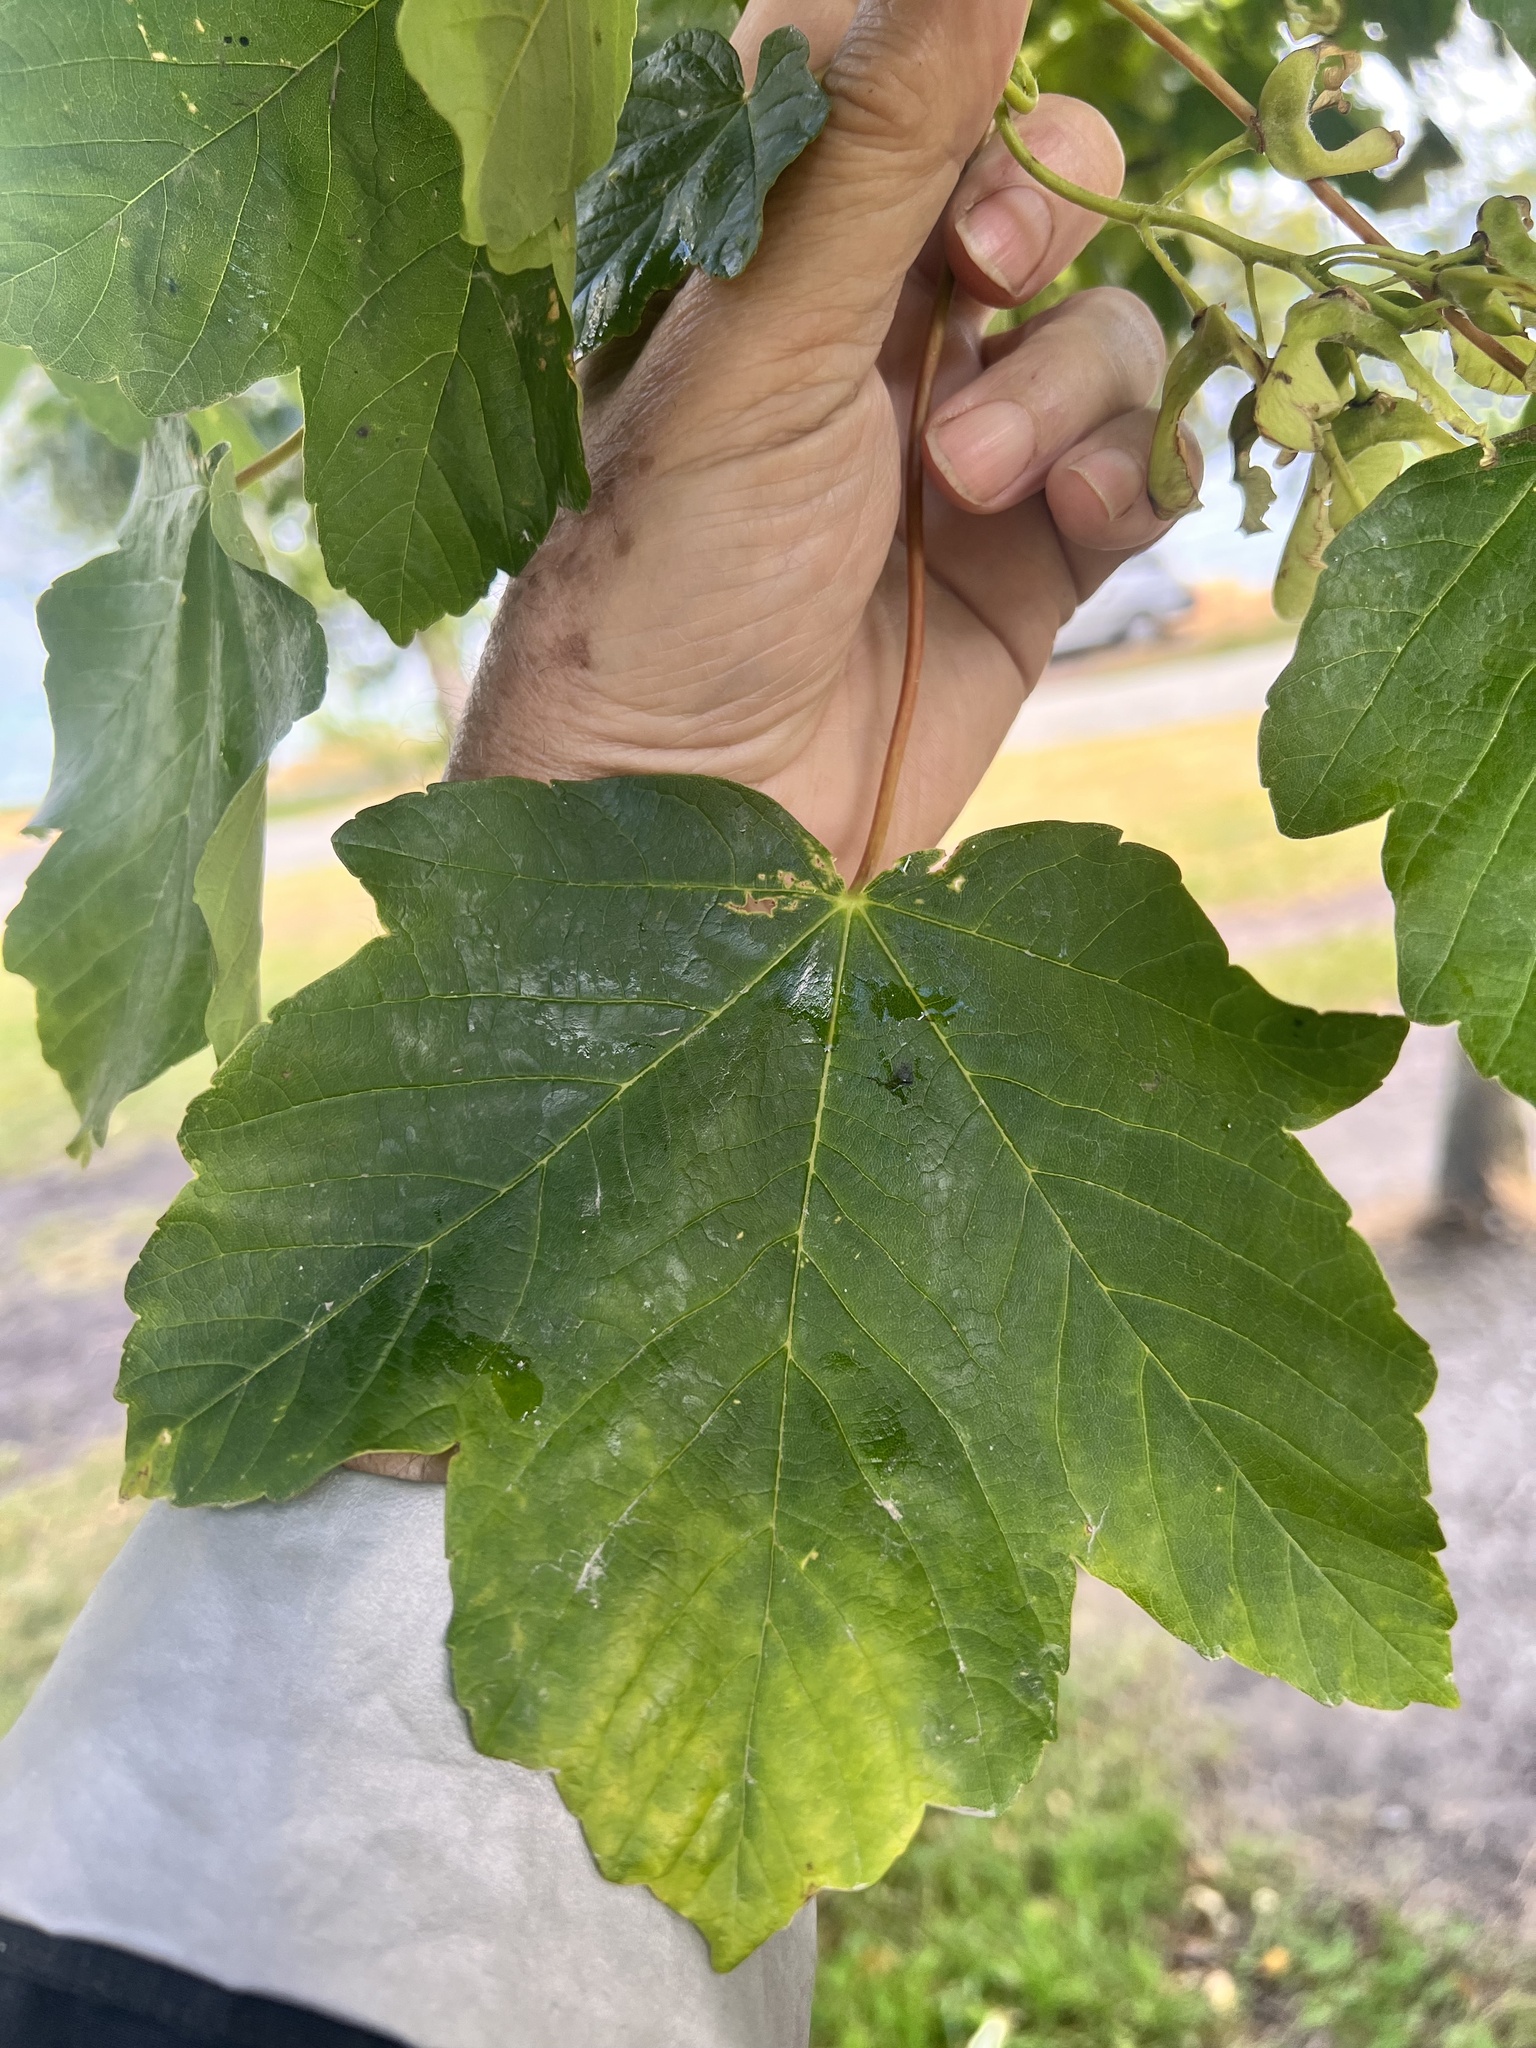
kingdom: Plantae
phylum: Tracheophyta
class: Magnoliopsida
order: Sapindales
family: Sapindaceae
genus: Acer
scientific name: Acer pseudoplatanus
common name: Sycamore
